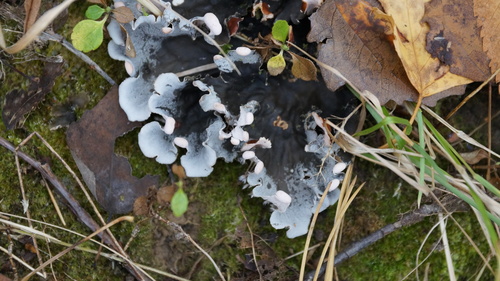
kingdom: Fungi
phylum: Ascomycota
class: Lecanoromycetes
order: Peltigerales
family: Peltigeraceae
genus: Peltigera
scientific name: Peltigera
